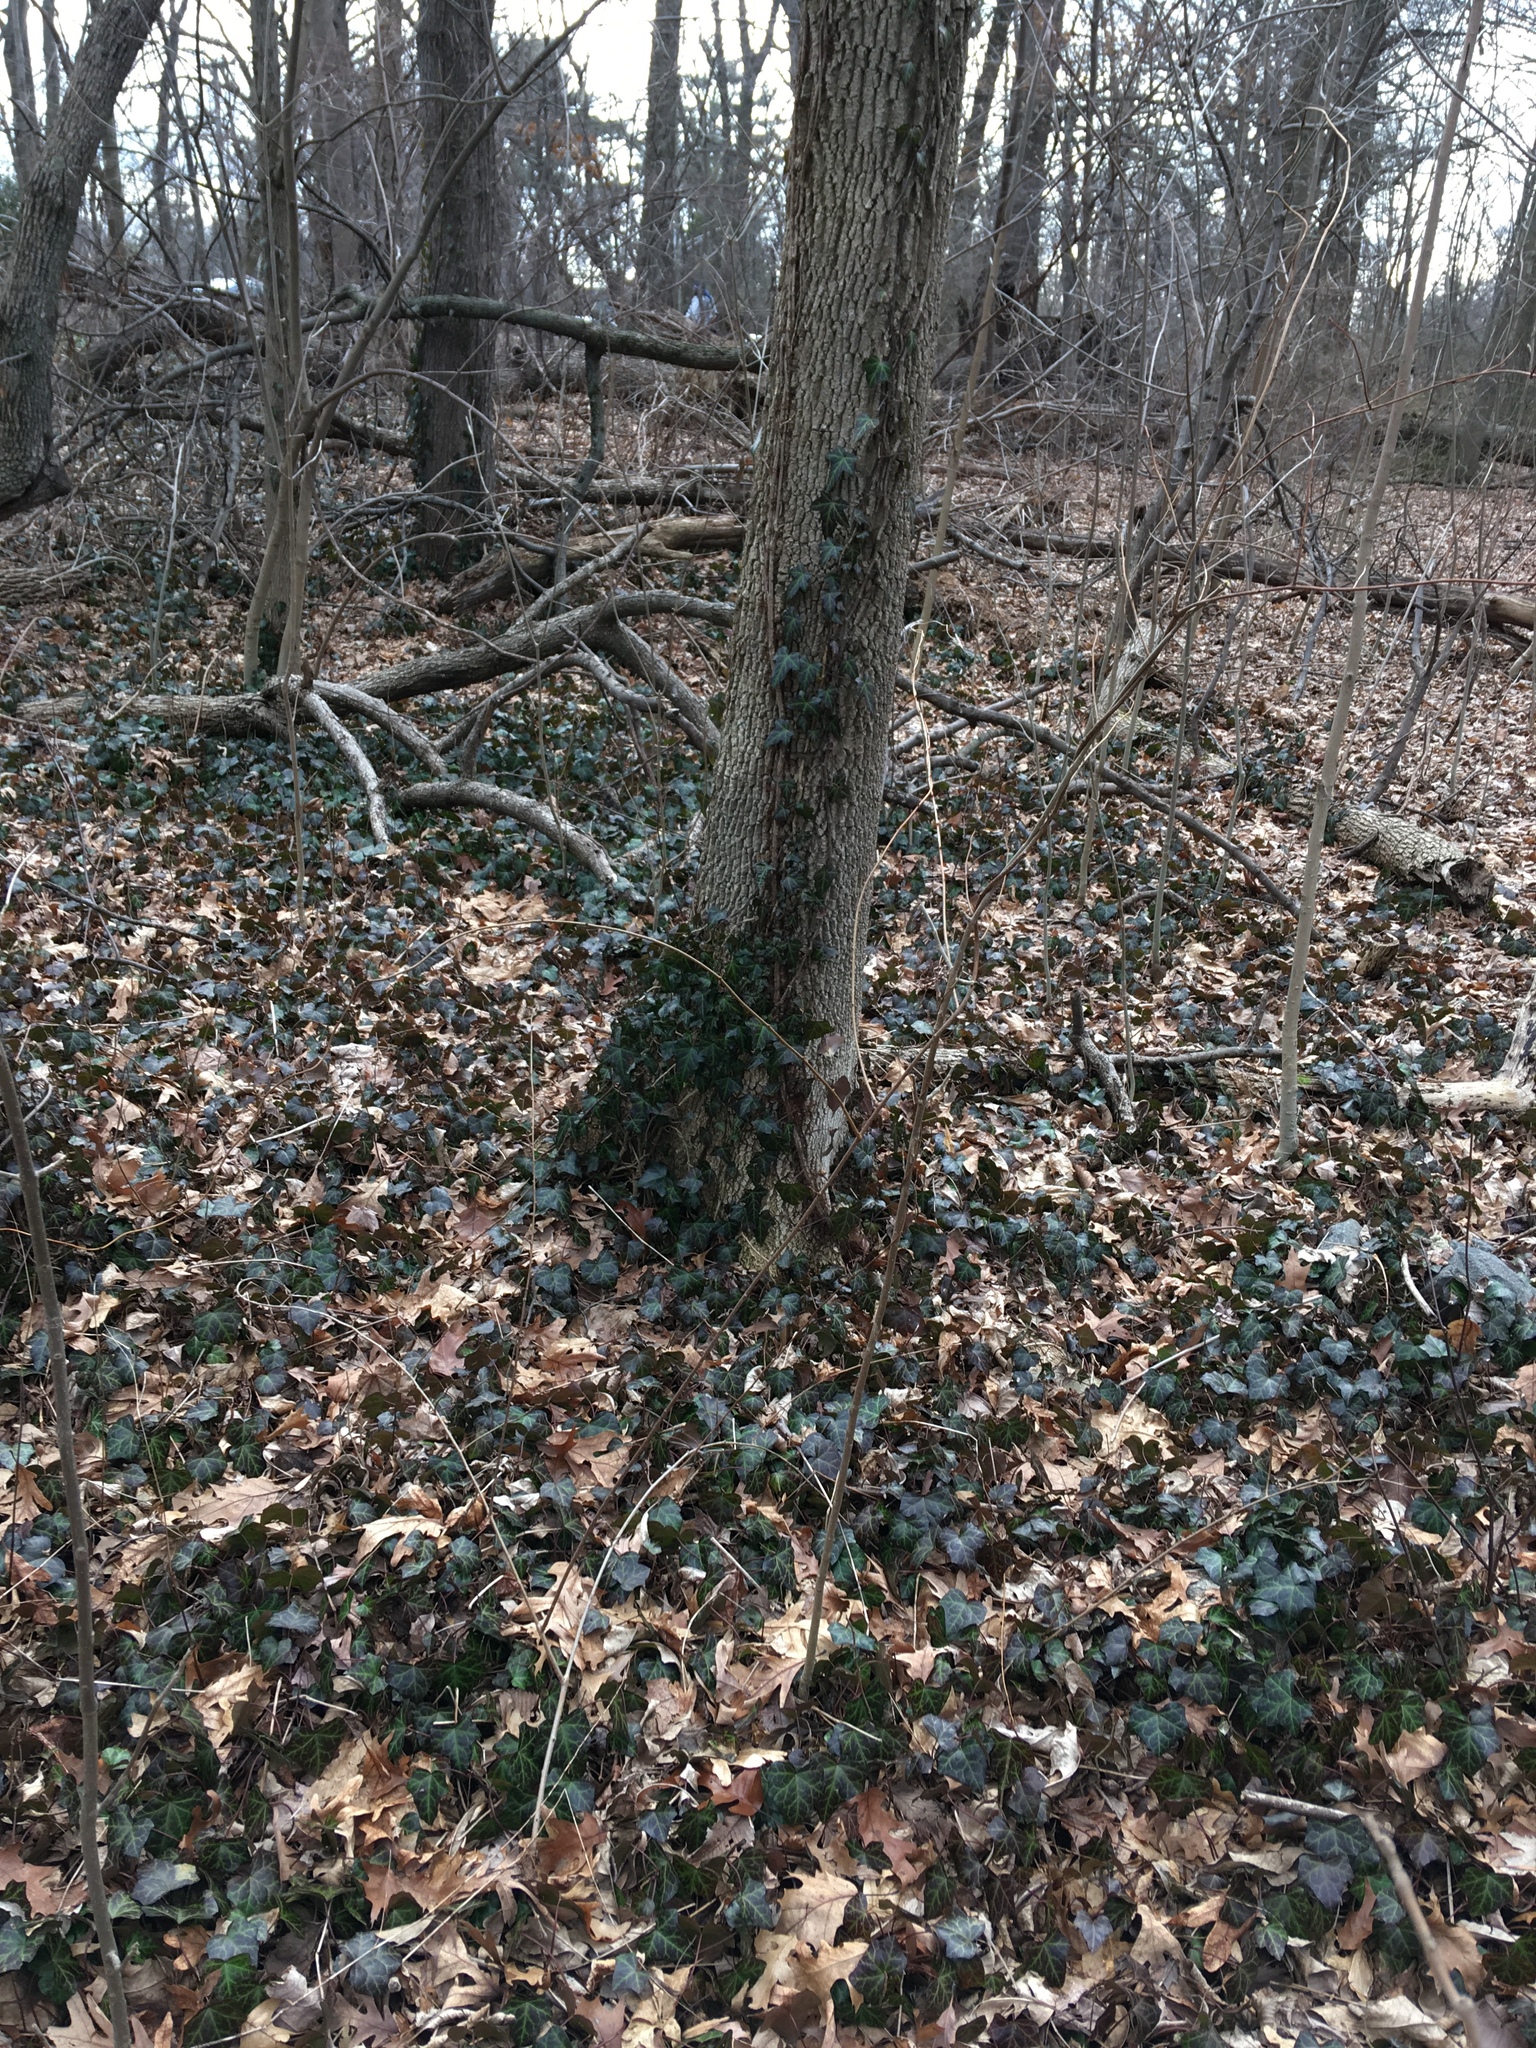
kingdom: Plantae
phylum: Tracheophyta
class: Magnoliopsida
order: Apiales
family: Araliaceae
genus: Hedera
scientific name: Hedera helix
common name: Ivy
